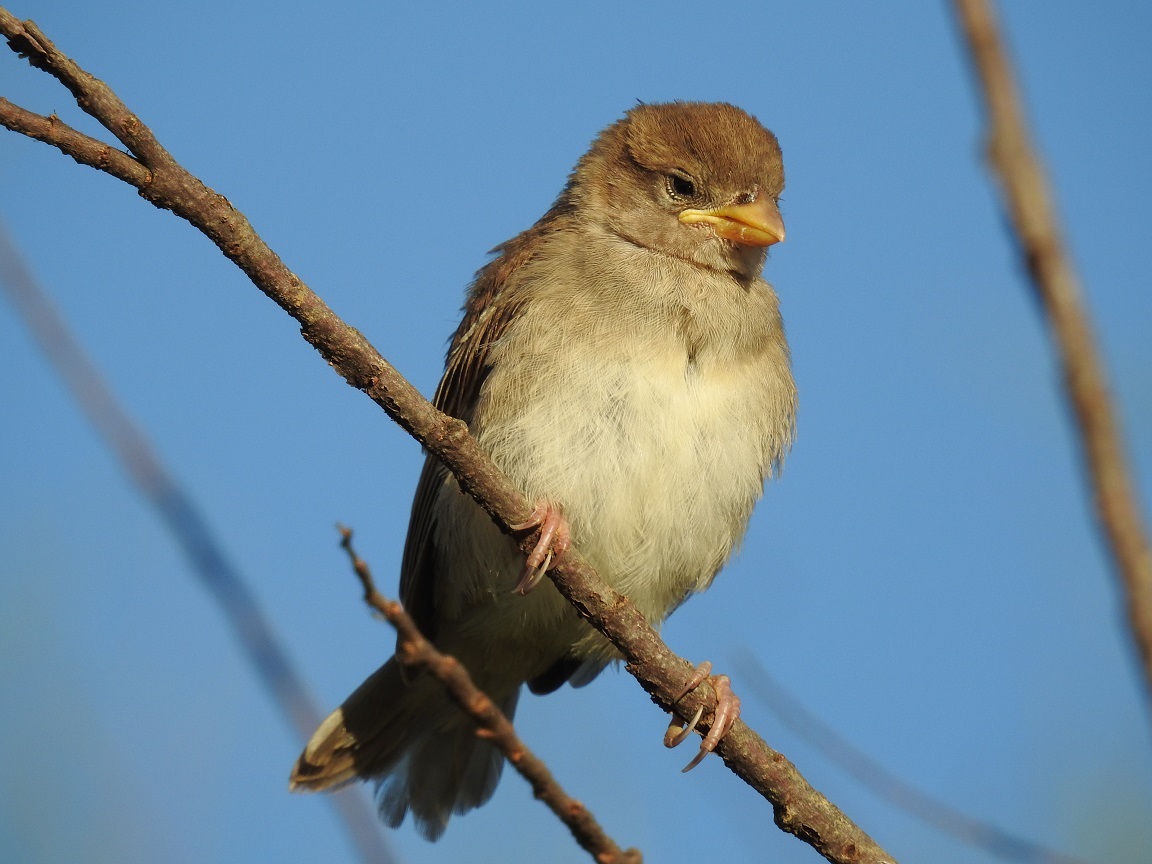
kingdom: Animalia
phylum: Chordata
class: Aves
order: Passeriformes
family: Passeridae
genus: Passer
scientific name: Passer hispaniolensis
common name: Spanish sparrow
